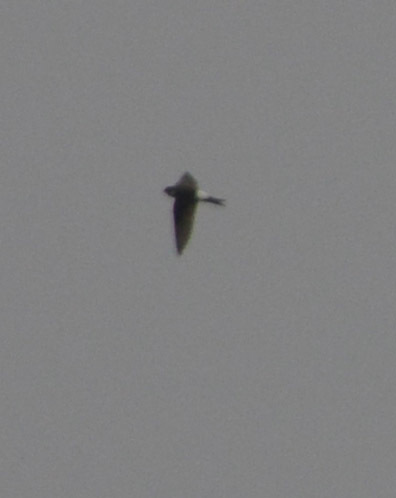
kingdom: Animalia
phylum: Chordata
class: Aves
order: Passeriformes
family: Hirundinidae
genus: Delichon
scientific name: Delichon urbicum
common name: Common house martin
